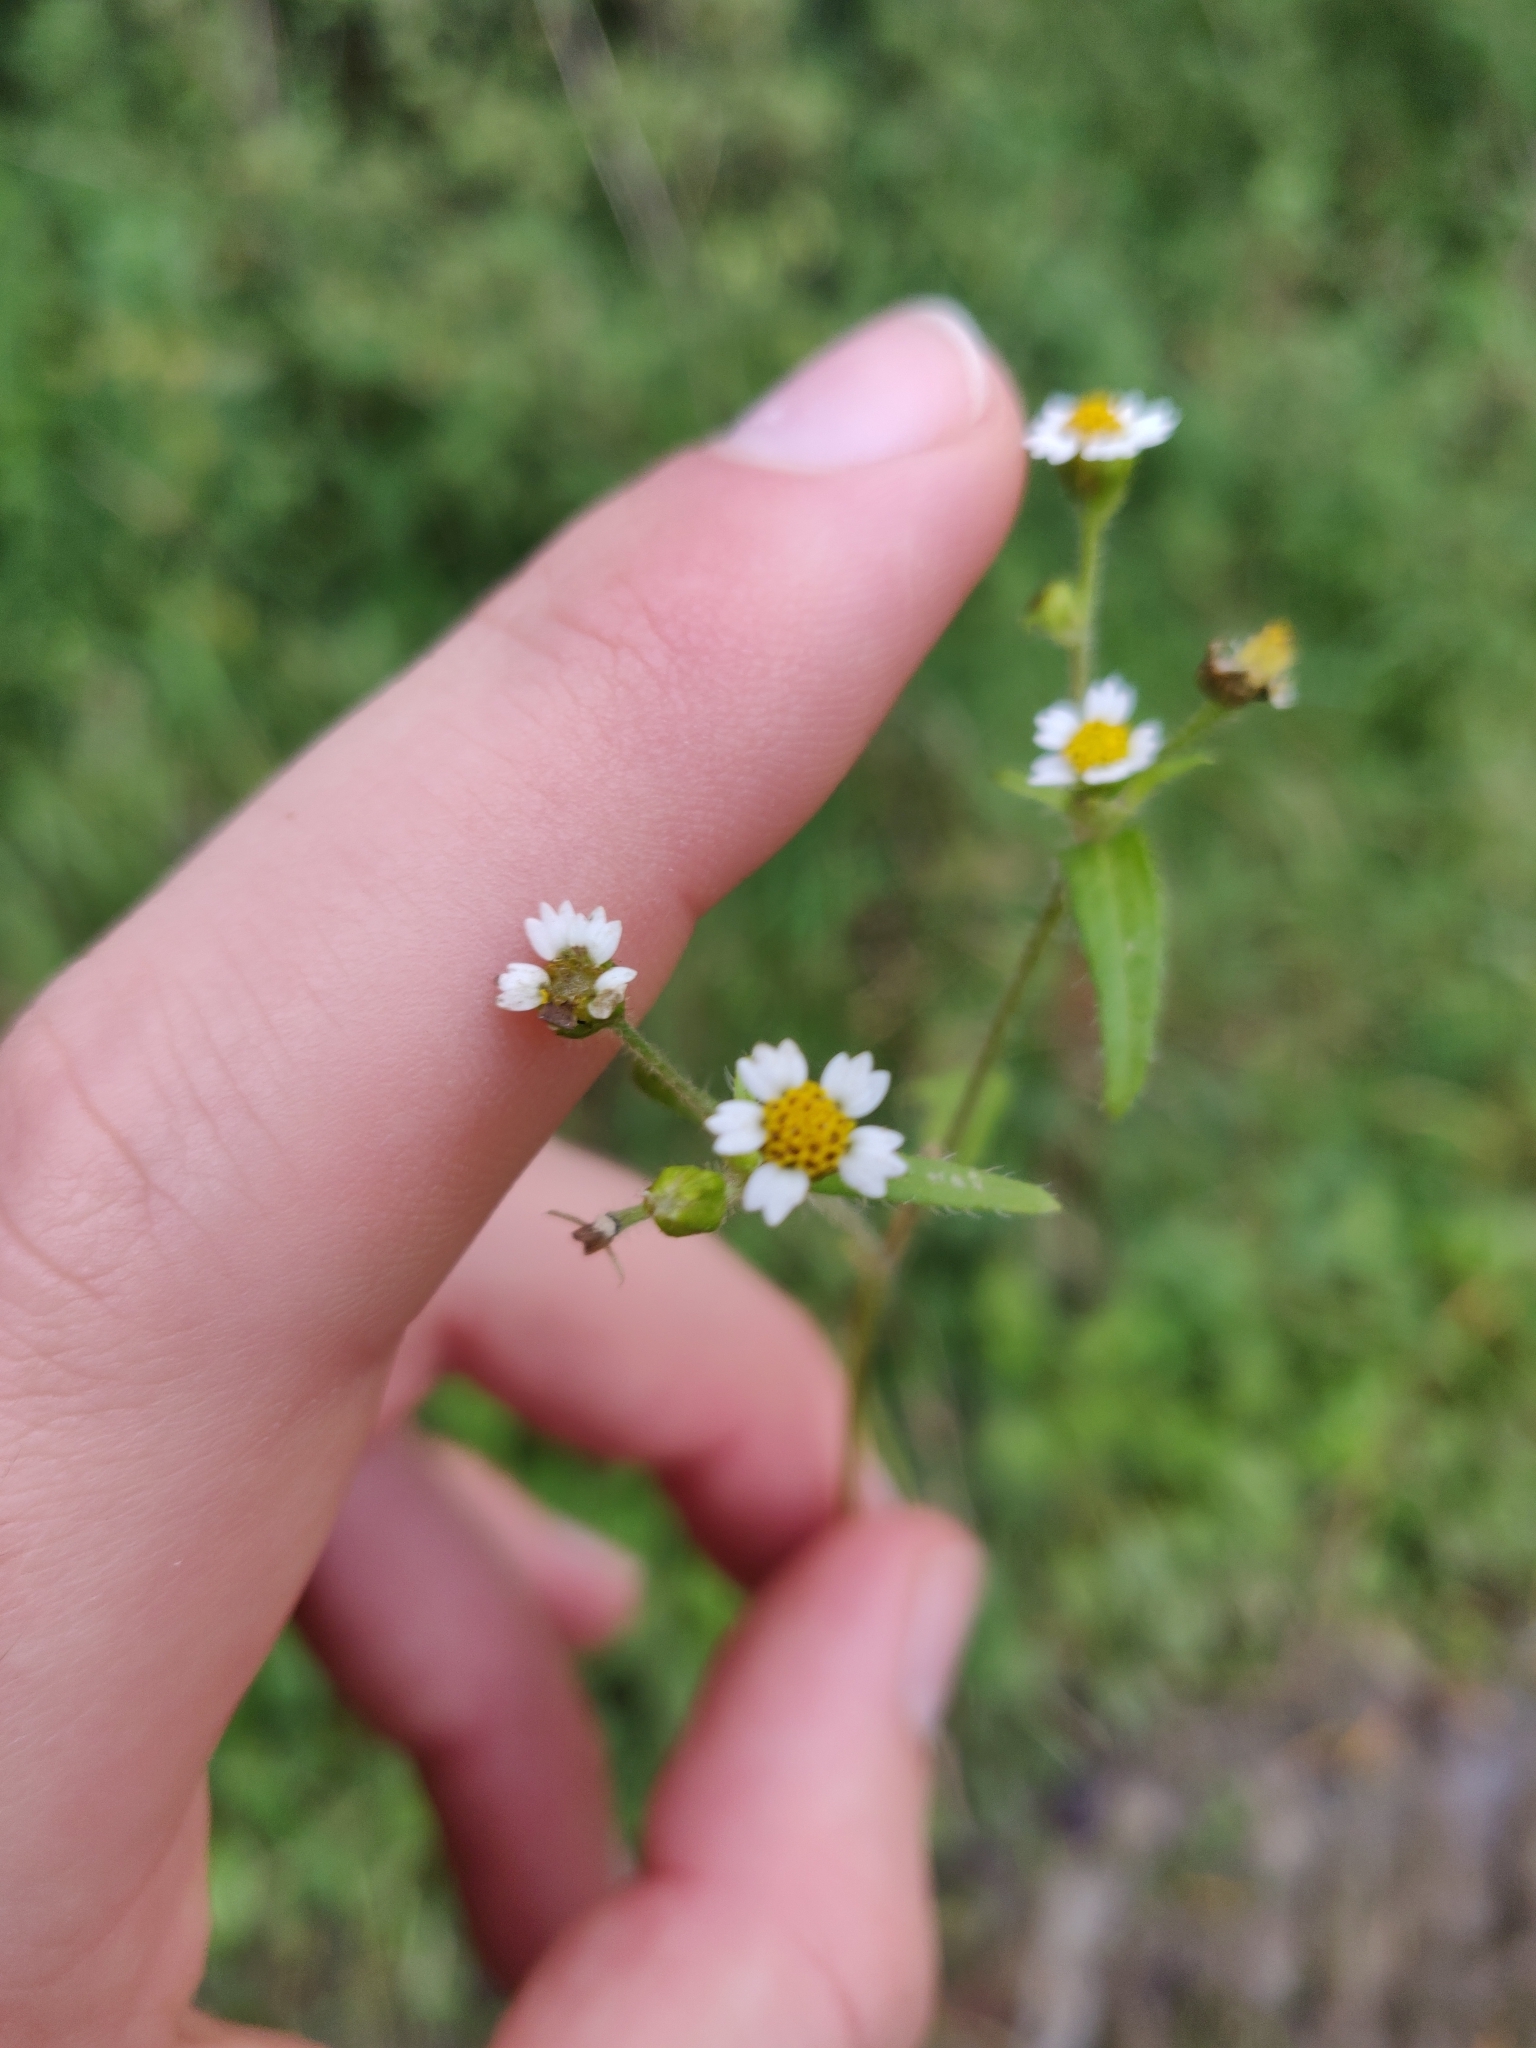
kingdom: Plantae
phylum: Tracheophyta
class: Magnoliopsida
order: Asterales
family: Asteraceae
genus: Galinsoga
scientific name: Galinsoga quadriradiata
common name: Shaggy soldier
